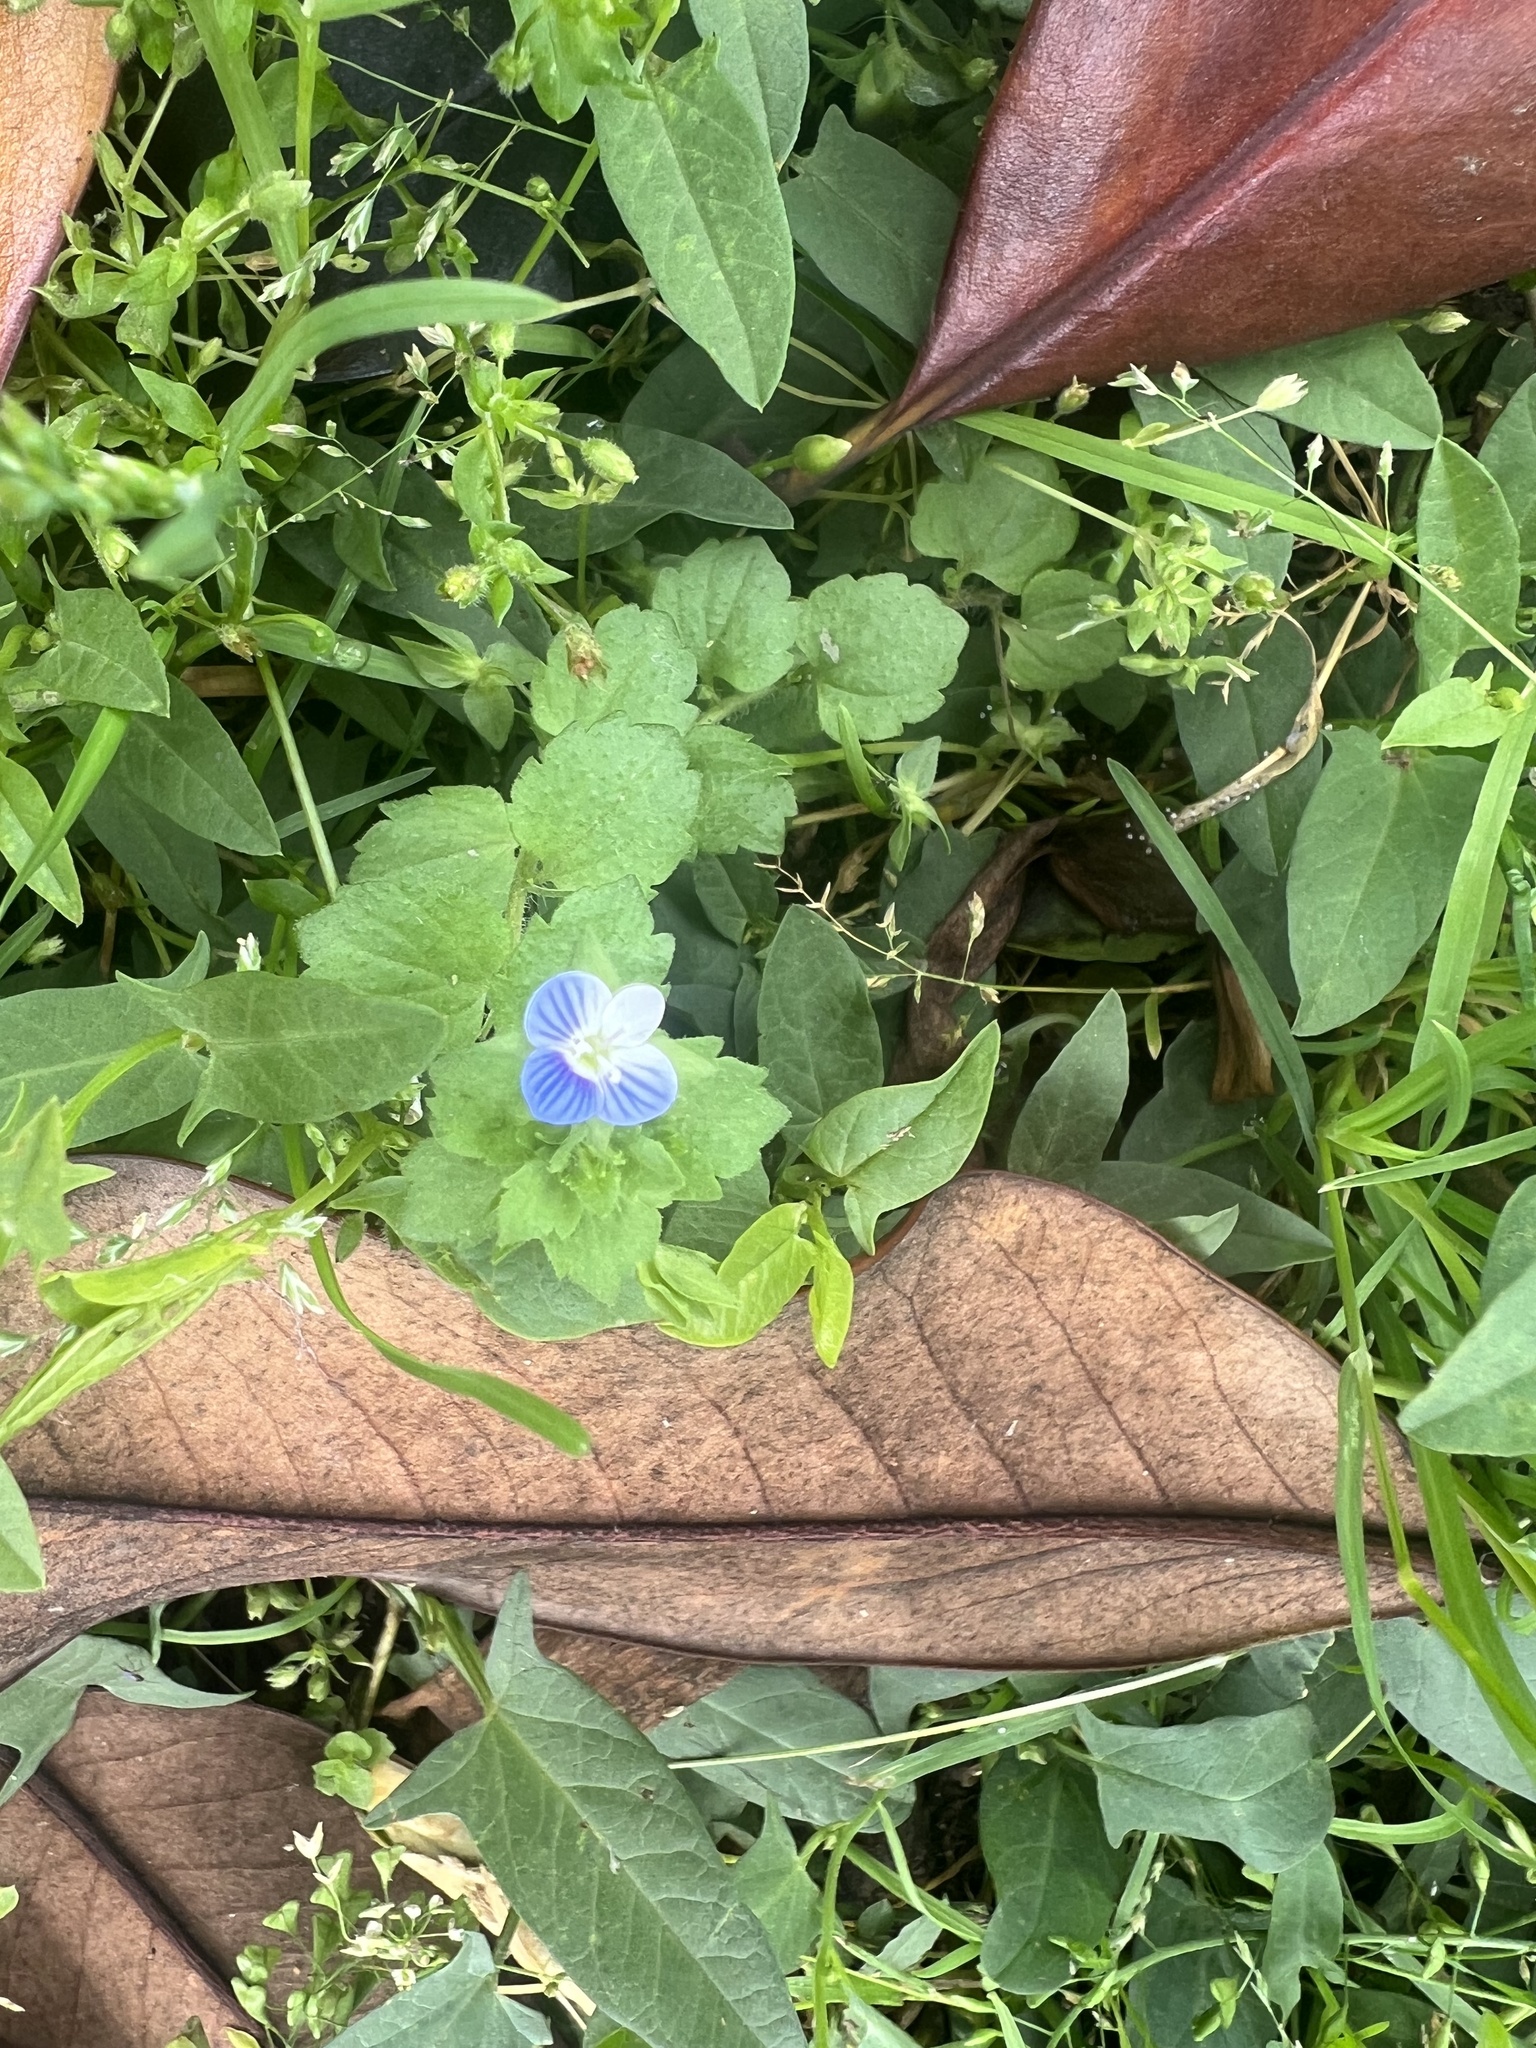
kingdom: Plantae
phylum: Tracheophyta
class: Magnoliopsida
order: Lamiales
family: Plantaginaceae
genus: Veronica
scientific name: Veronica persica
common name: Common field-speedwell
